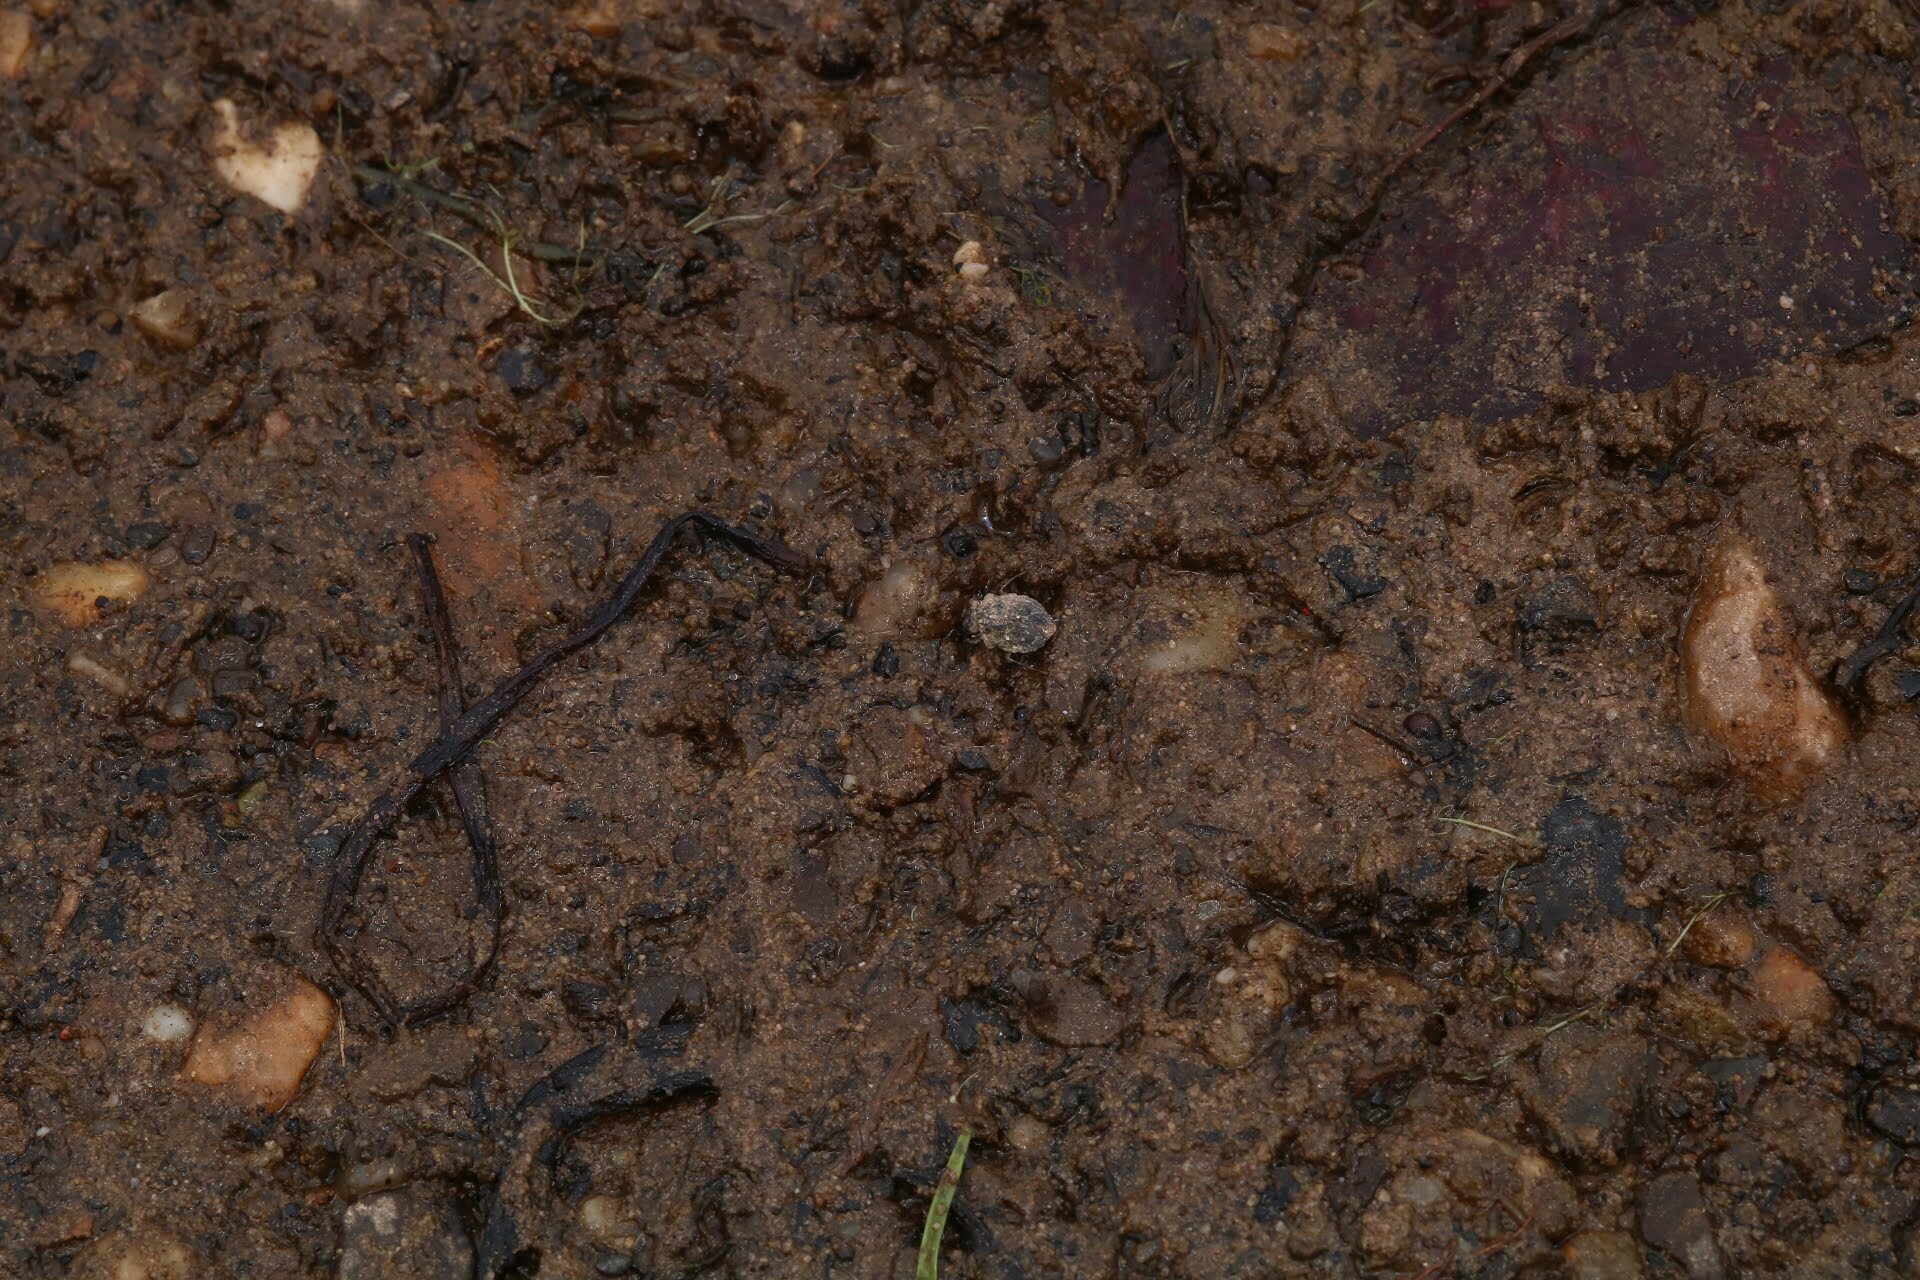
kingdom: Animalia
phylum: Arthropoda
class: Insecta
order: Hemiptera
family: Gelastocoridae
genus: Gelastocoris
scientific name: Gelastocoris oculatus
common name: Toad bug
